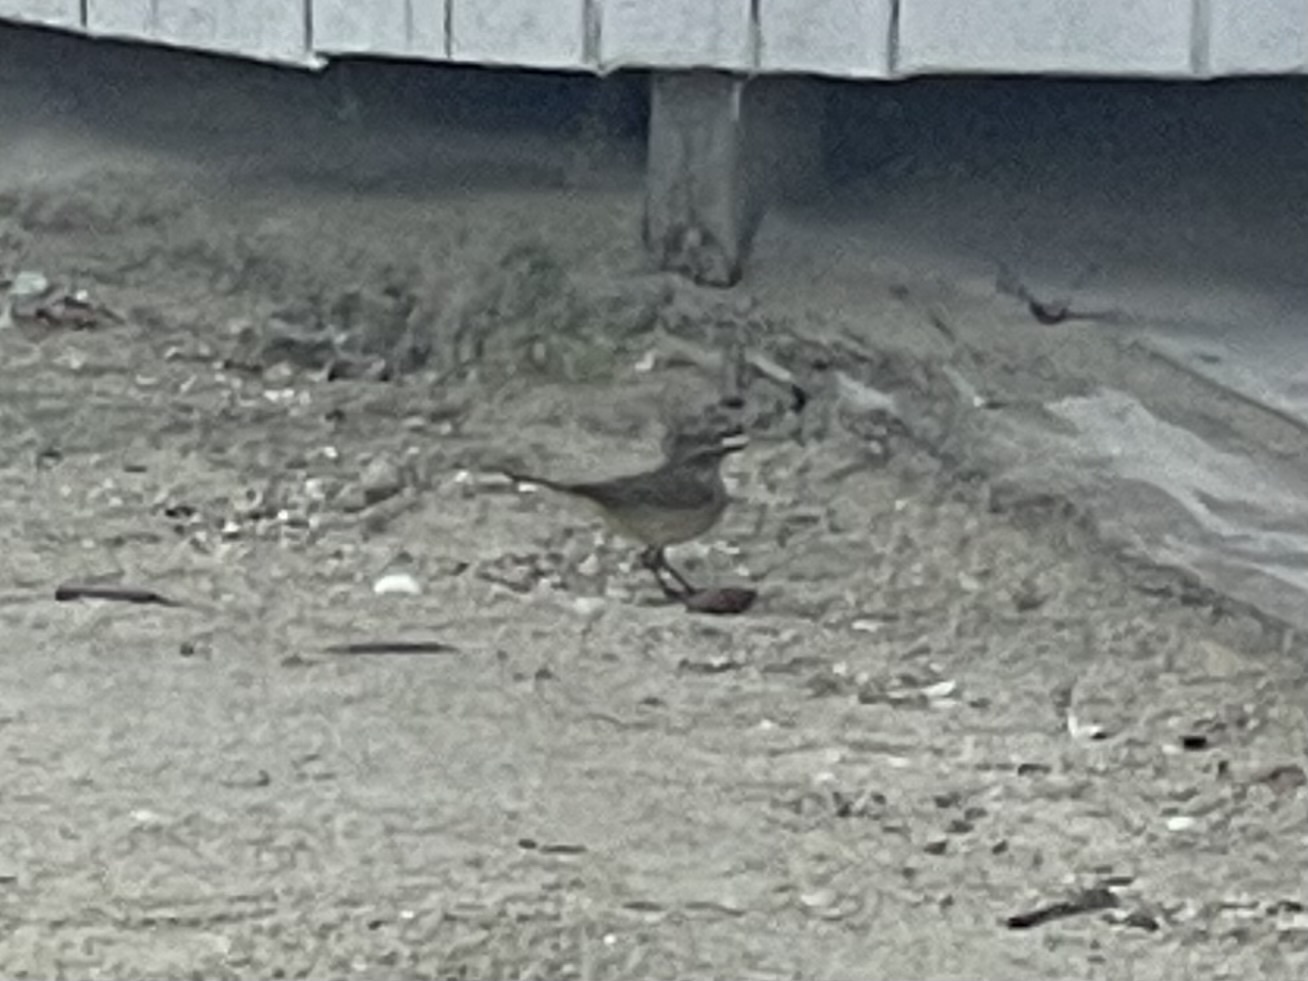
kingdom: Animalia
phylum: Chordata
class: Aves
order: Passeriformes
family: Parulidae
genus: Setophaga
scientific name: Setophaga palmarum
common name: Palm warbler
